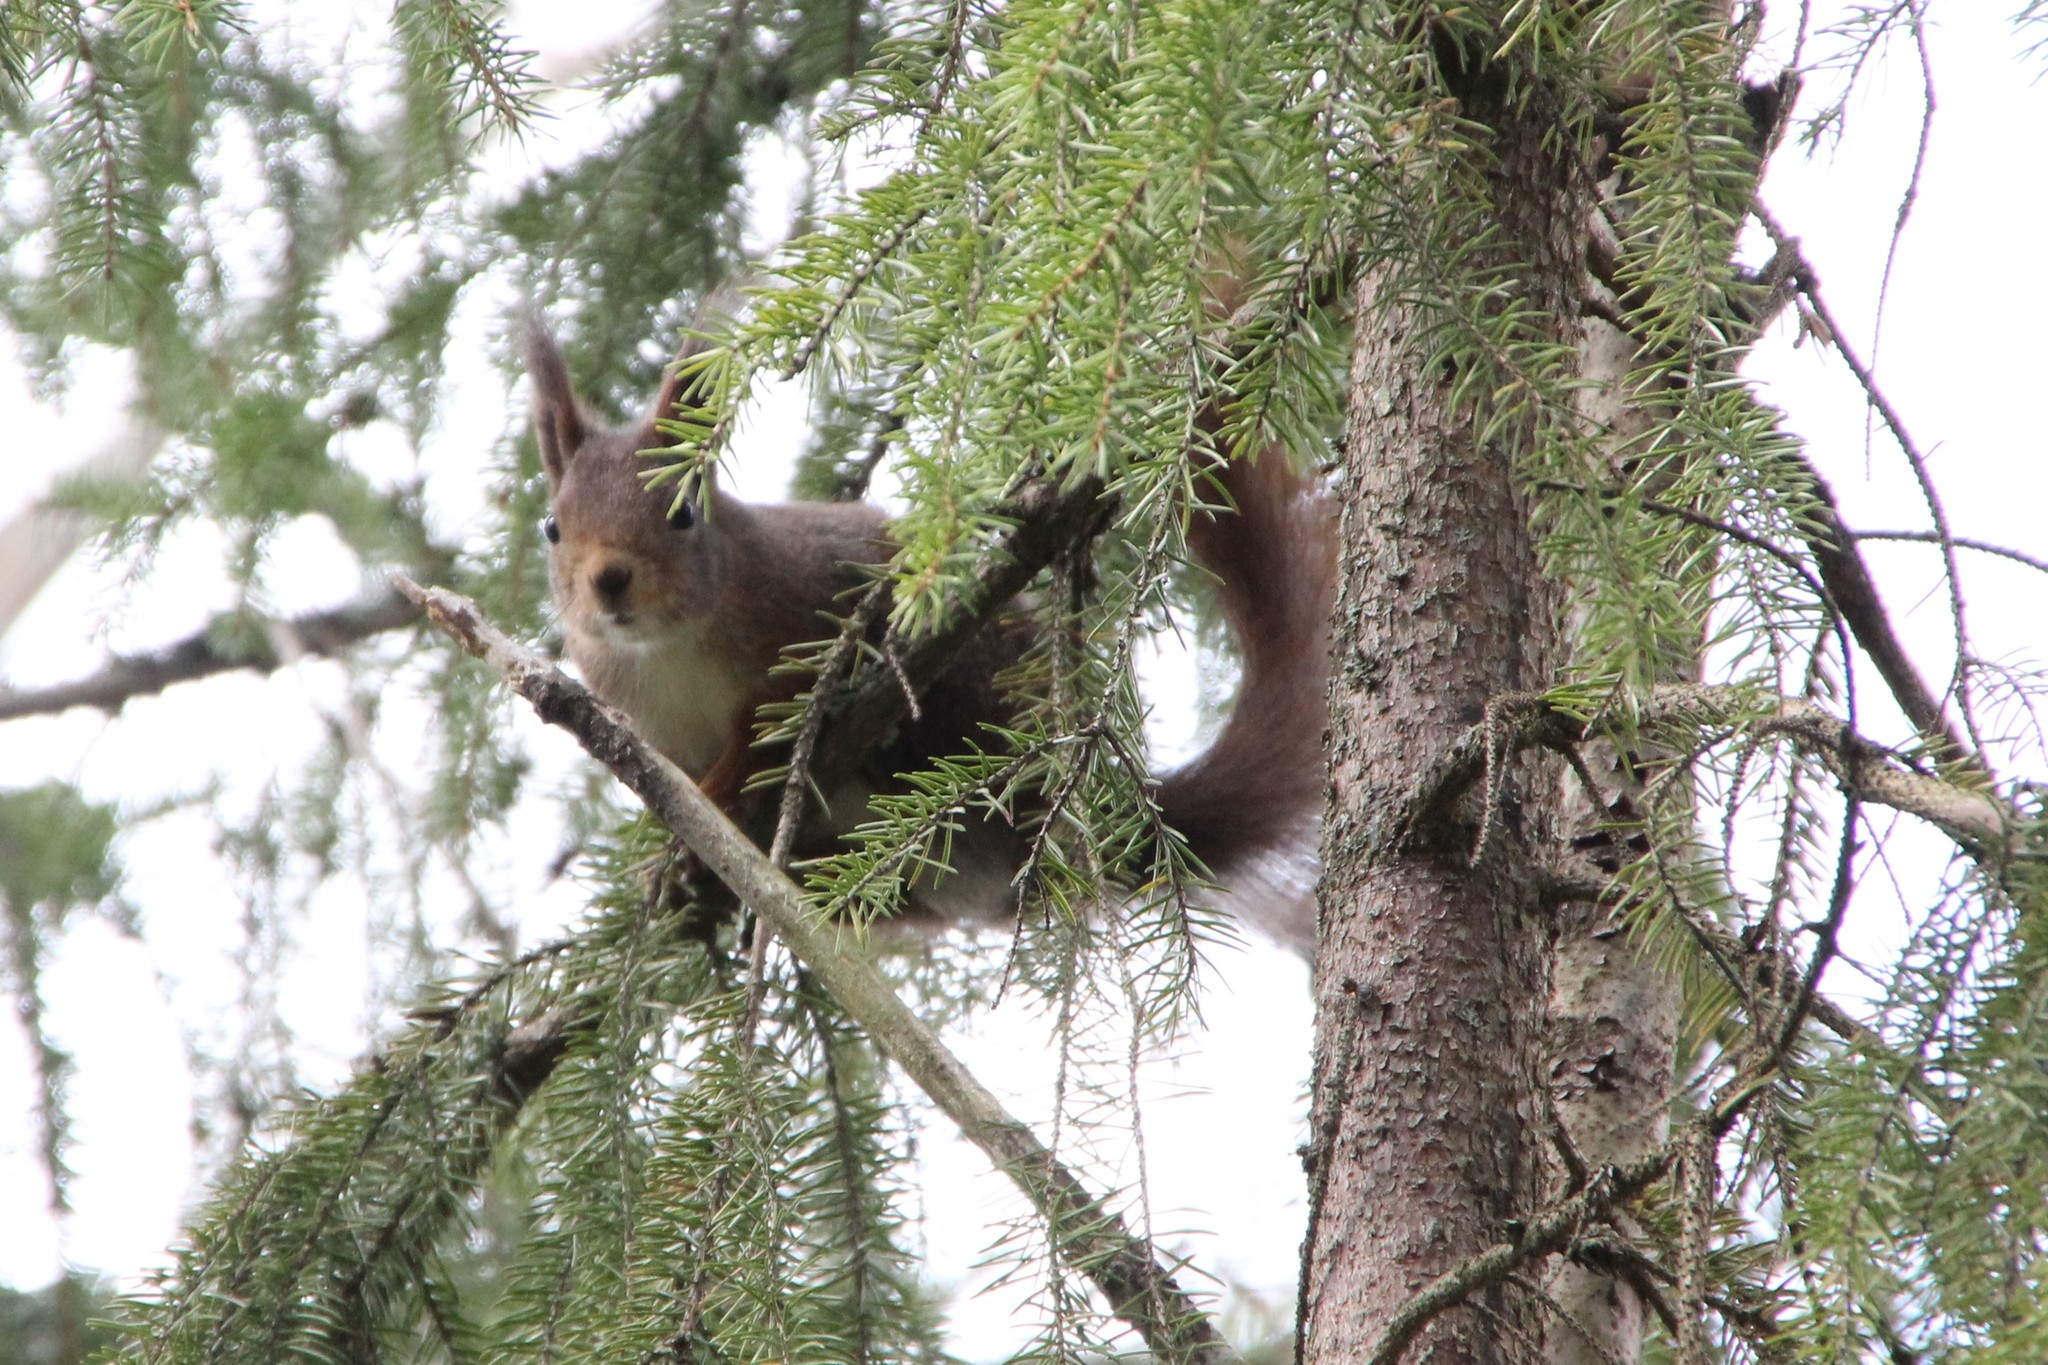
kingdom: Animalia
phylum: Chordata
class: Mammalia
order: Rodentia
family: Sciuridae
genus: Sciurus
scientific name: Sciurus vulgaris
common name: Eurasian red squirrel
